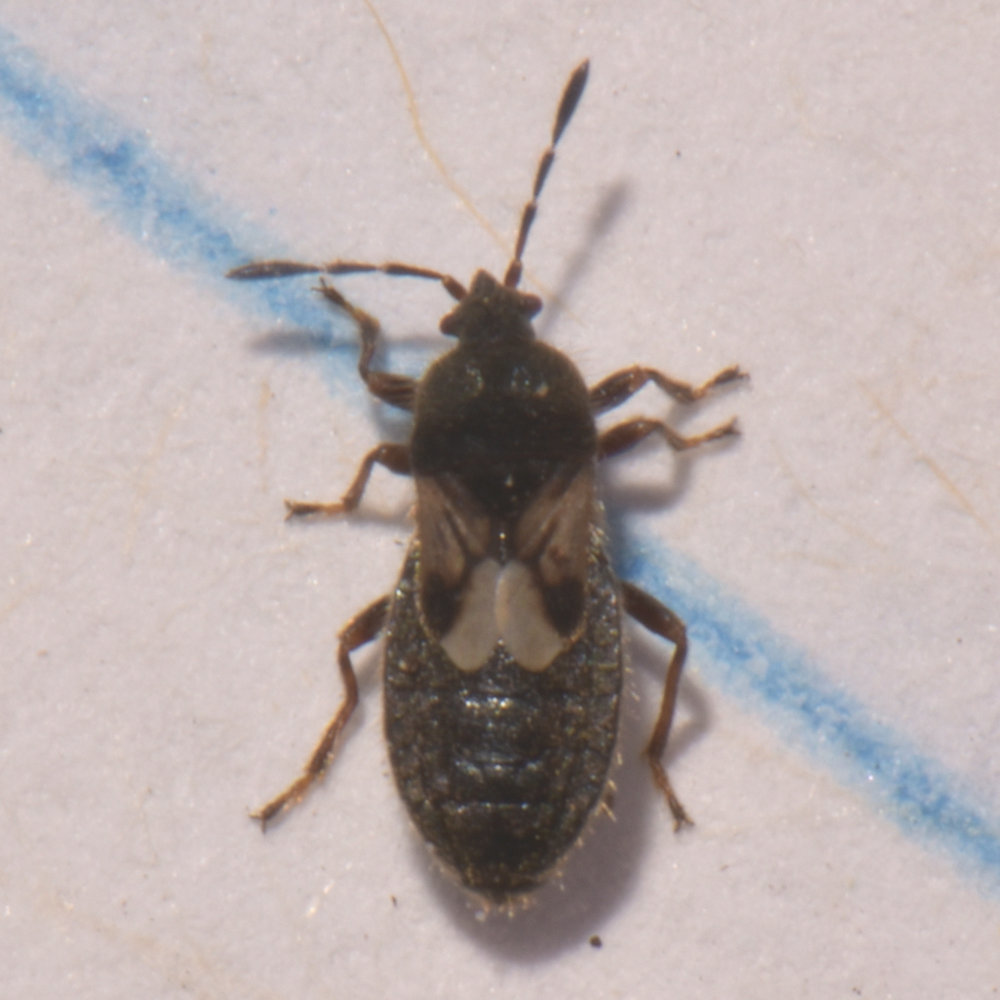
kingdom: Animalia
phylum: Arthropoda
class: Insecta
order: Hemiptera
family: Blissidae
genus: Blissus
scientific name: Blissus leucopterus
